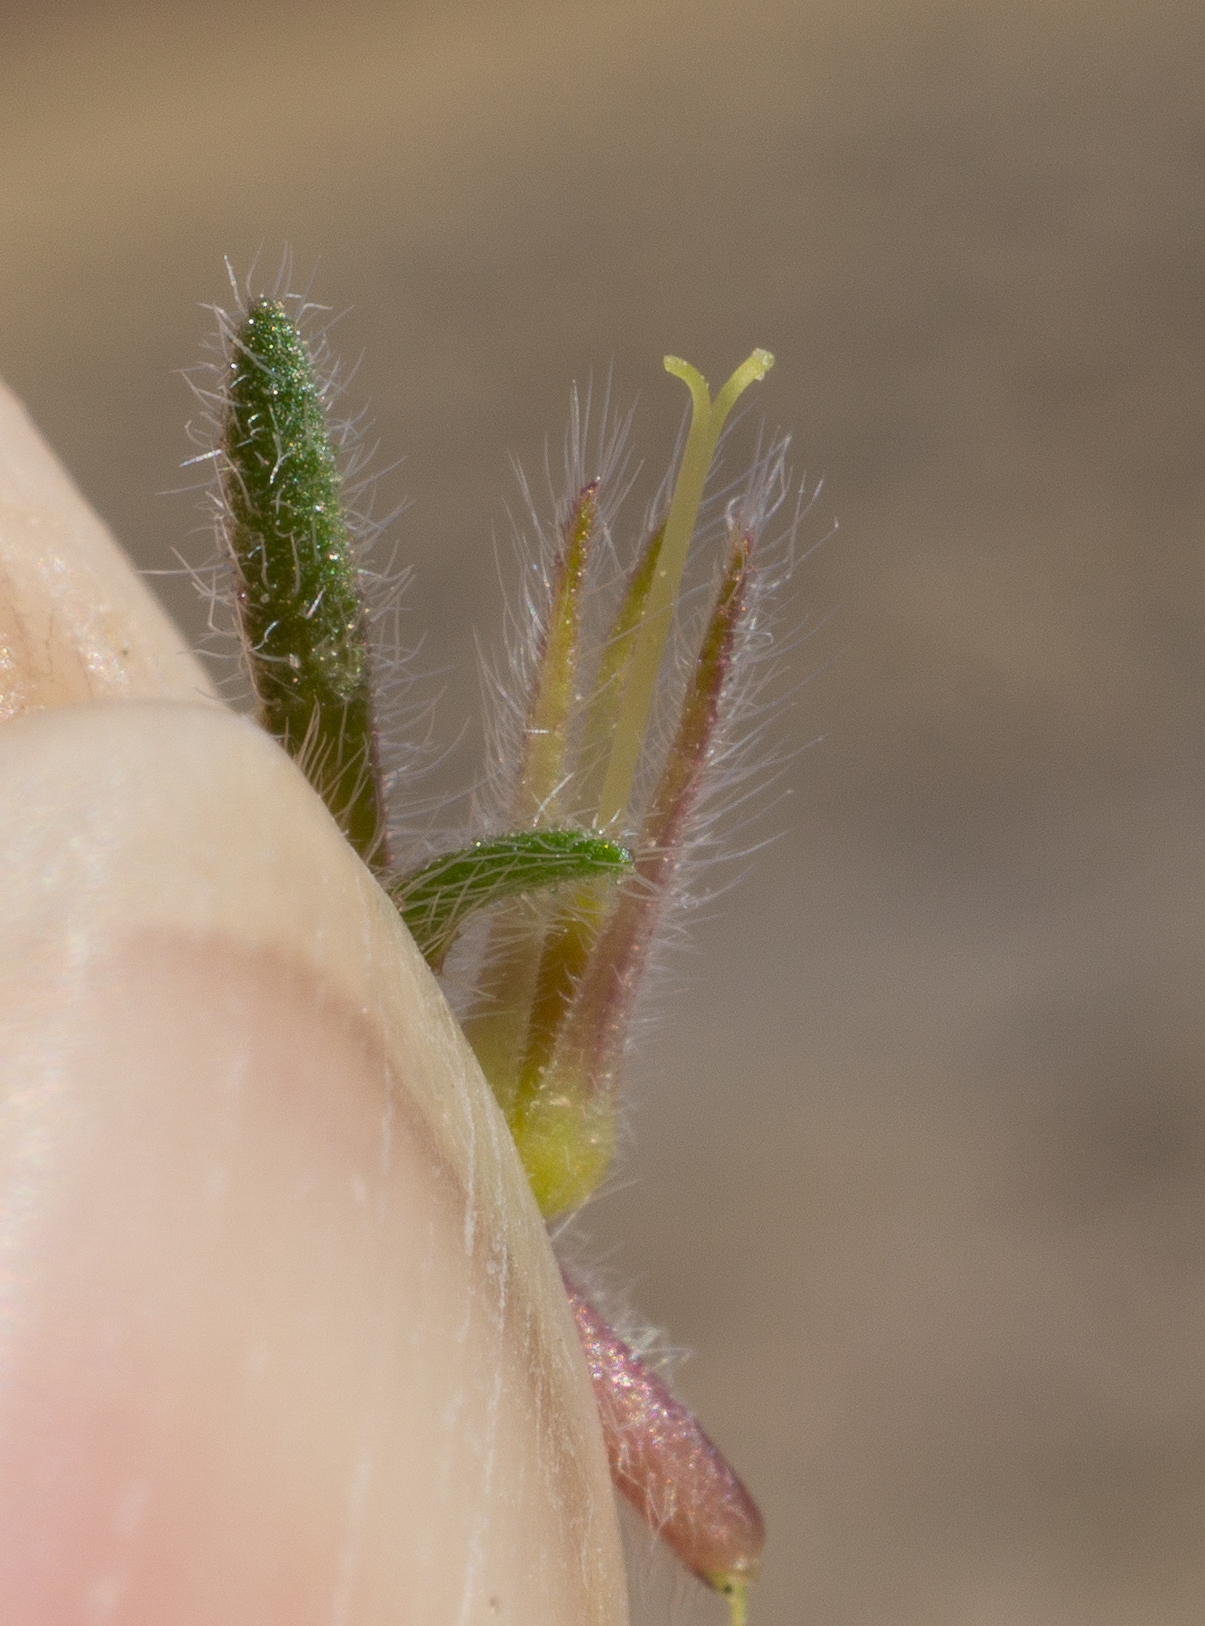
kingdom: Plantae
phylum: Tracheophyta
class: Magnoliopsida
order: Boraginales
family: Namaceae
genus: Nama
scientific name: Nama aretioides
